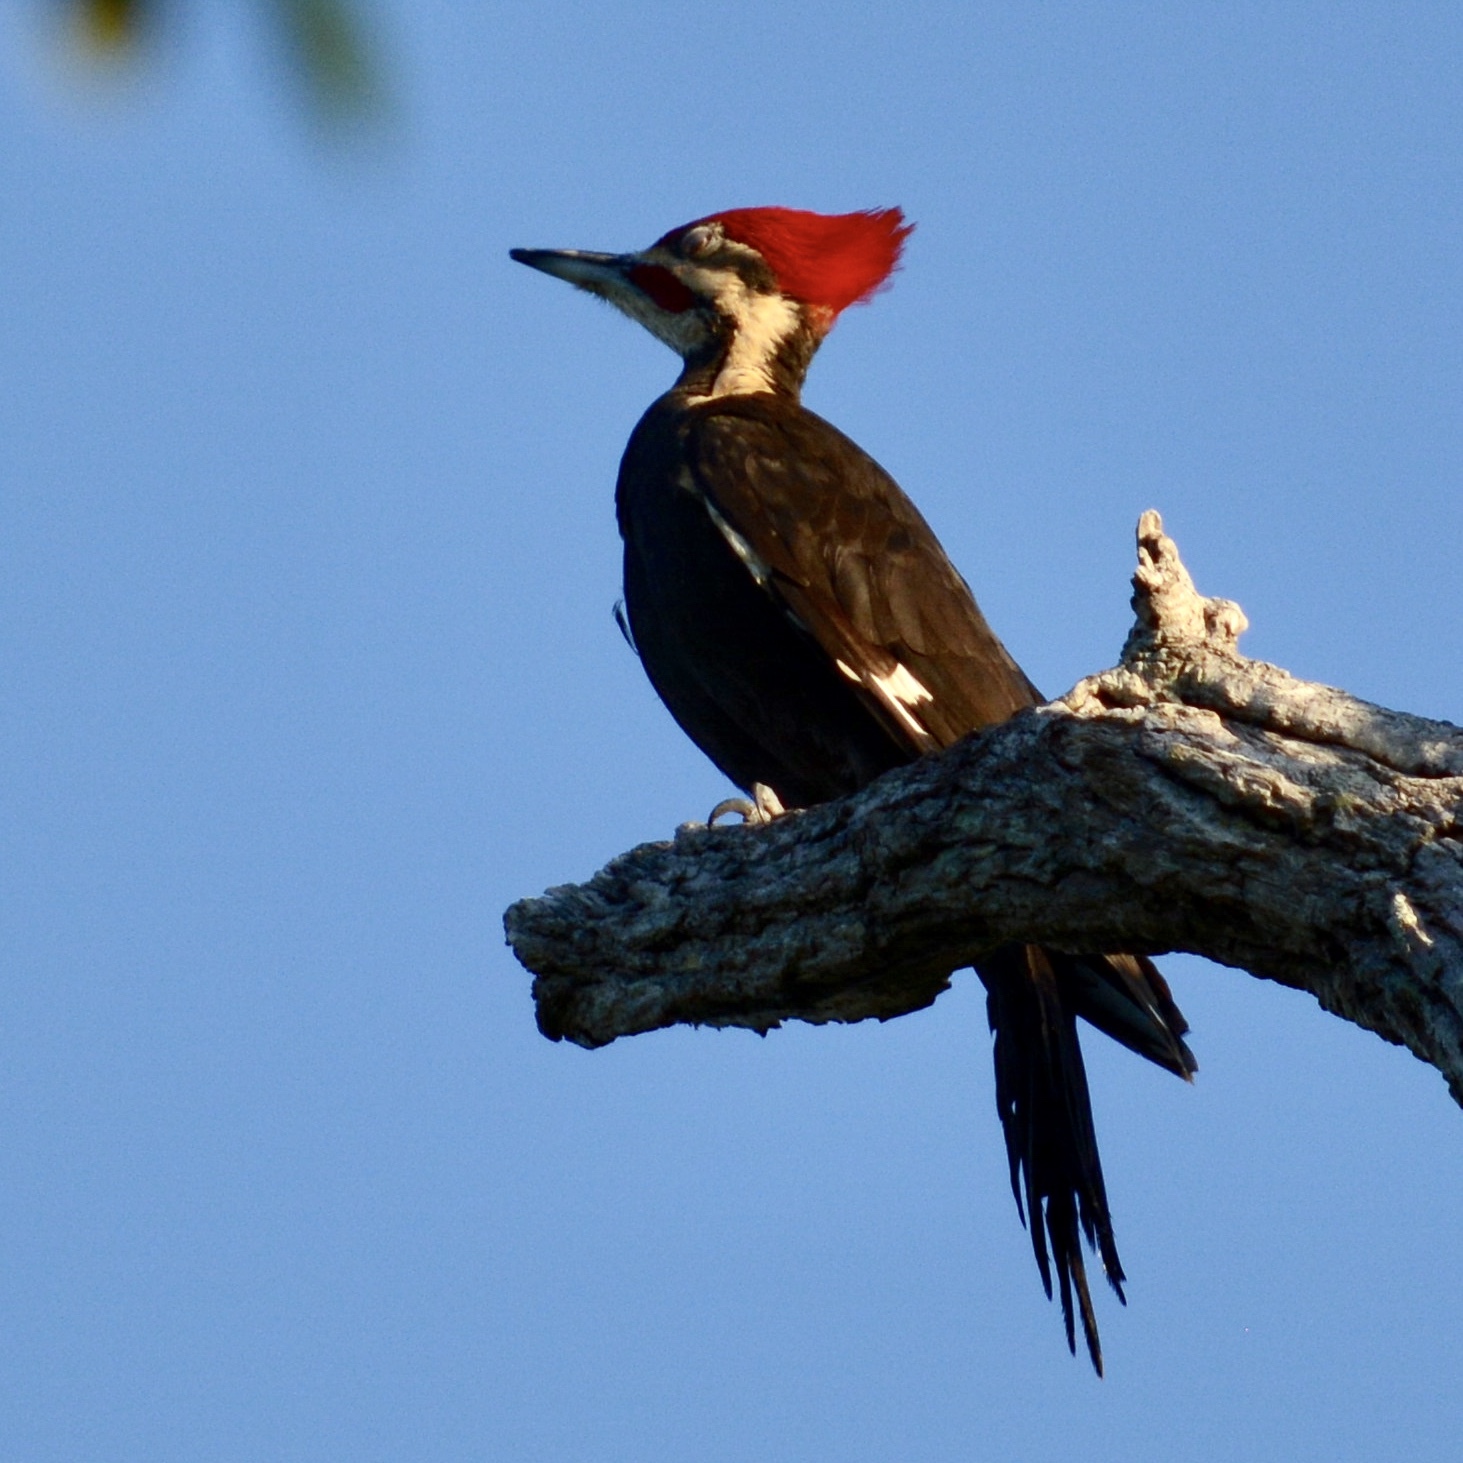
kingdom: Animalia
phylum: Chordata
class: Aves
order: Piciformes
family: Picidae
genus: Dryocopus
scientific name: Dryocopus pileatus
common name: Pileated woodpecker
